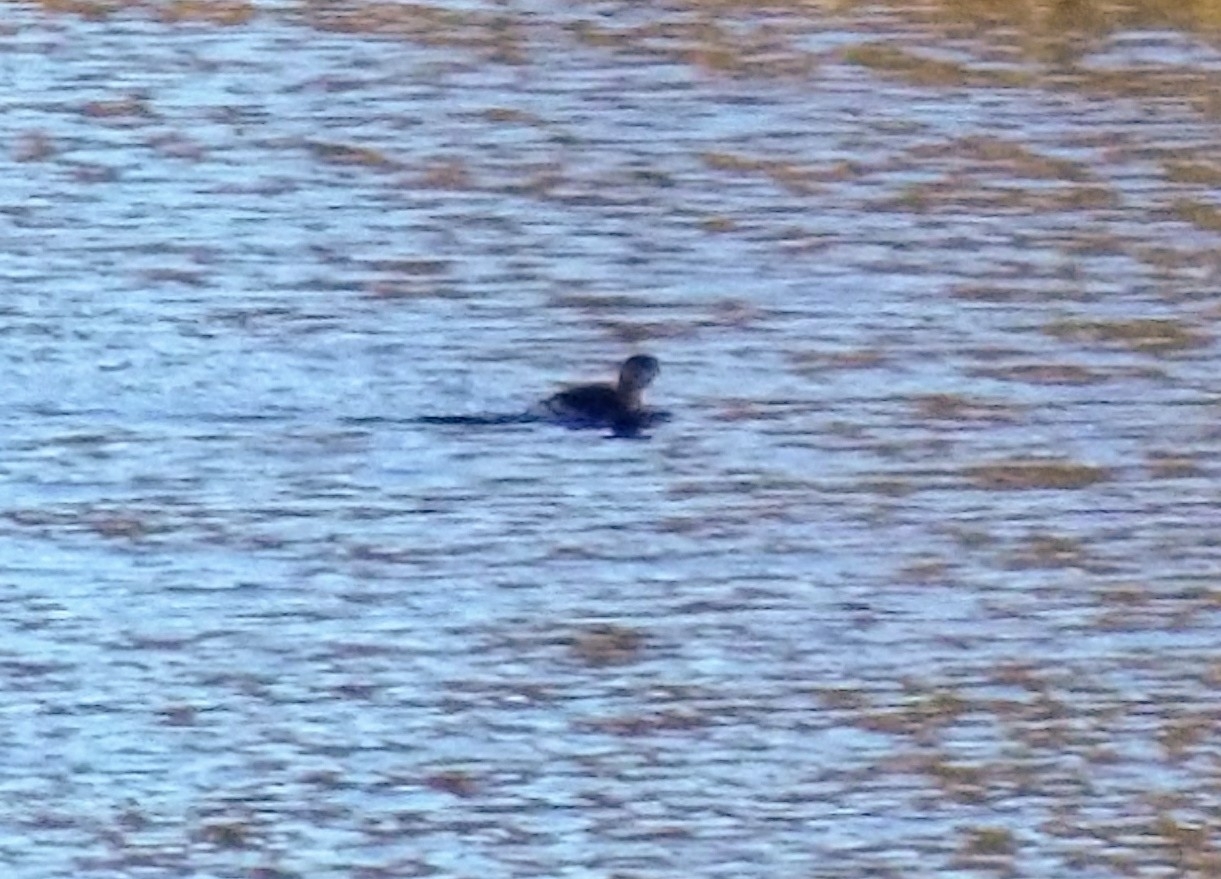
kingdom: Animalia
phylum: Chordata
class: Aves
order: Podicipediformes
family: Podicipedidae
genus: Podilymbus
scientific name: Podilymbus podiceps
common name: Pied-billed grebe
